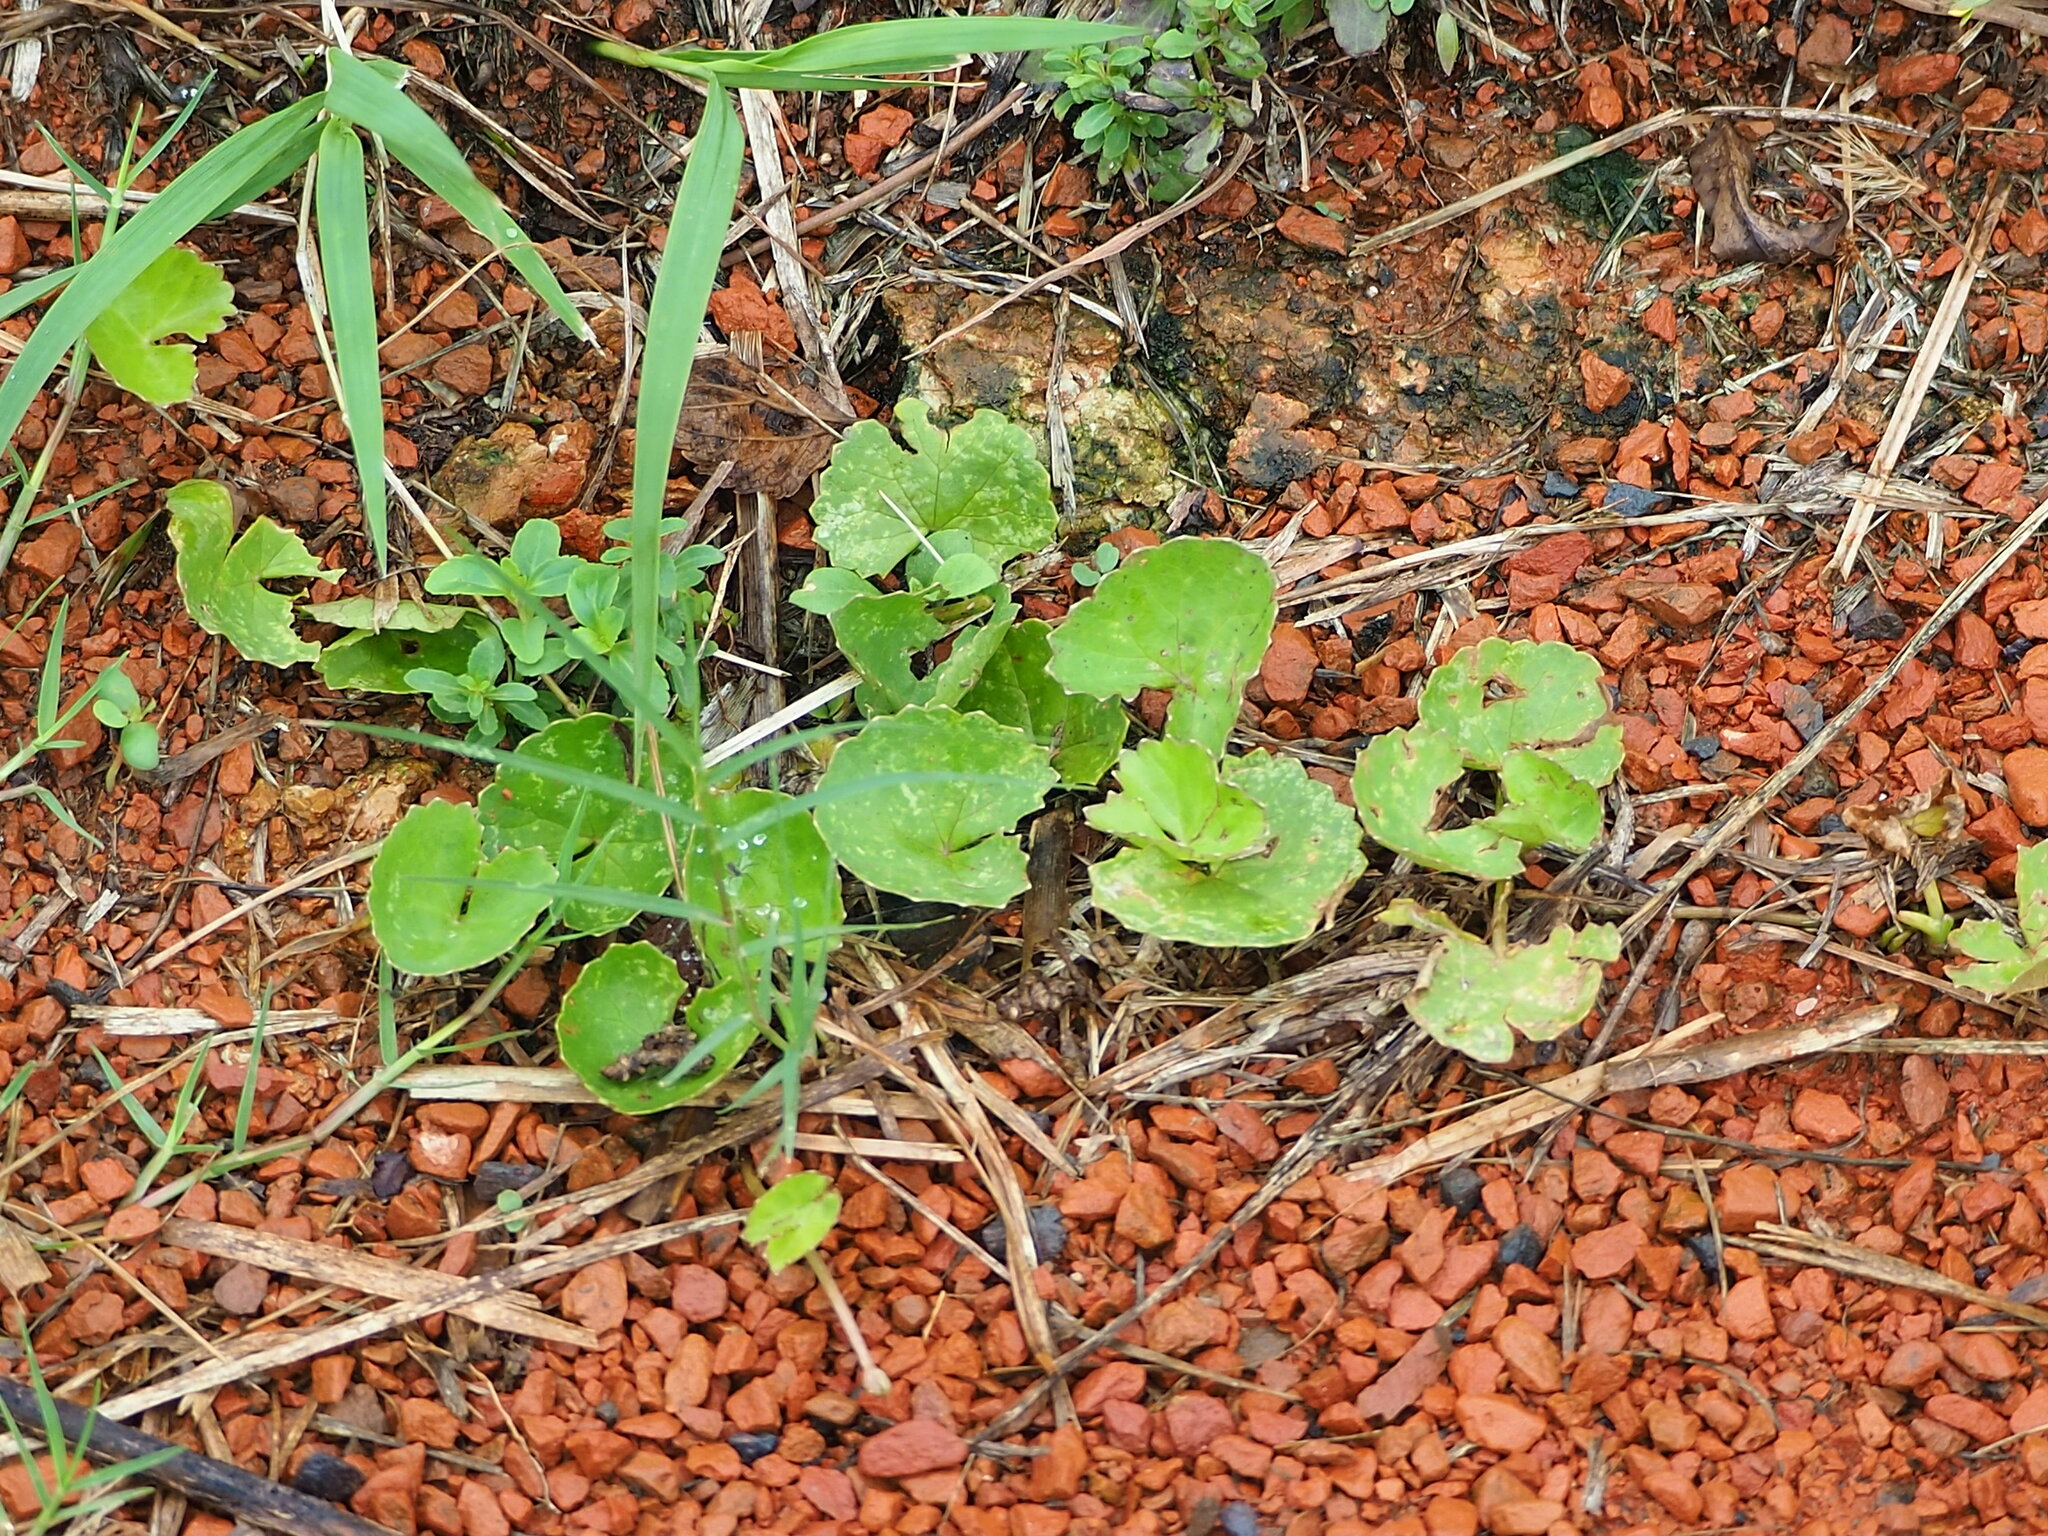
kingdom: Plantae
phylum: Tracheophyta
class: Magnoliopsida
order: Apiales
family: Apiaceae
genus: Centella
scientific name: Centella asiatica
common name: Spadeleaf
